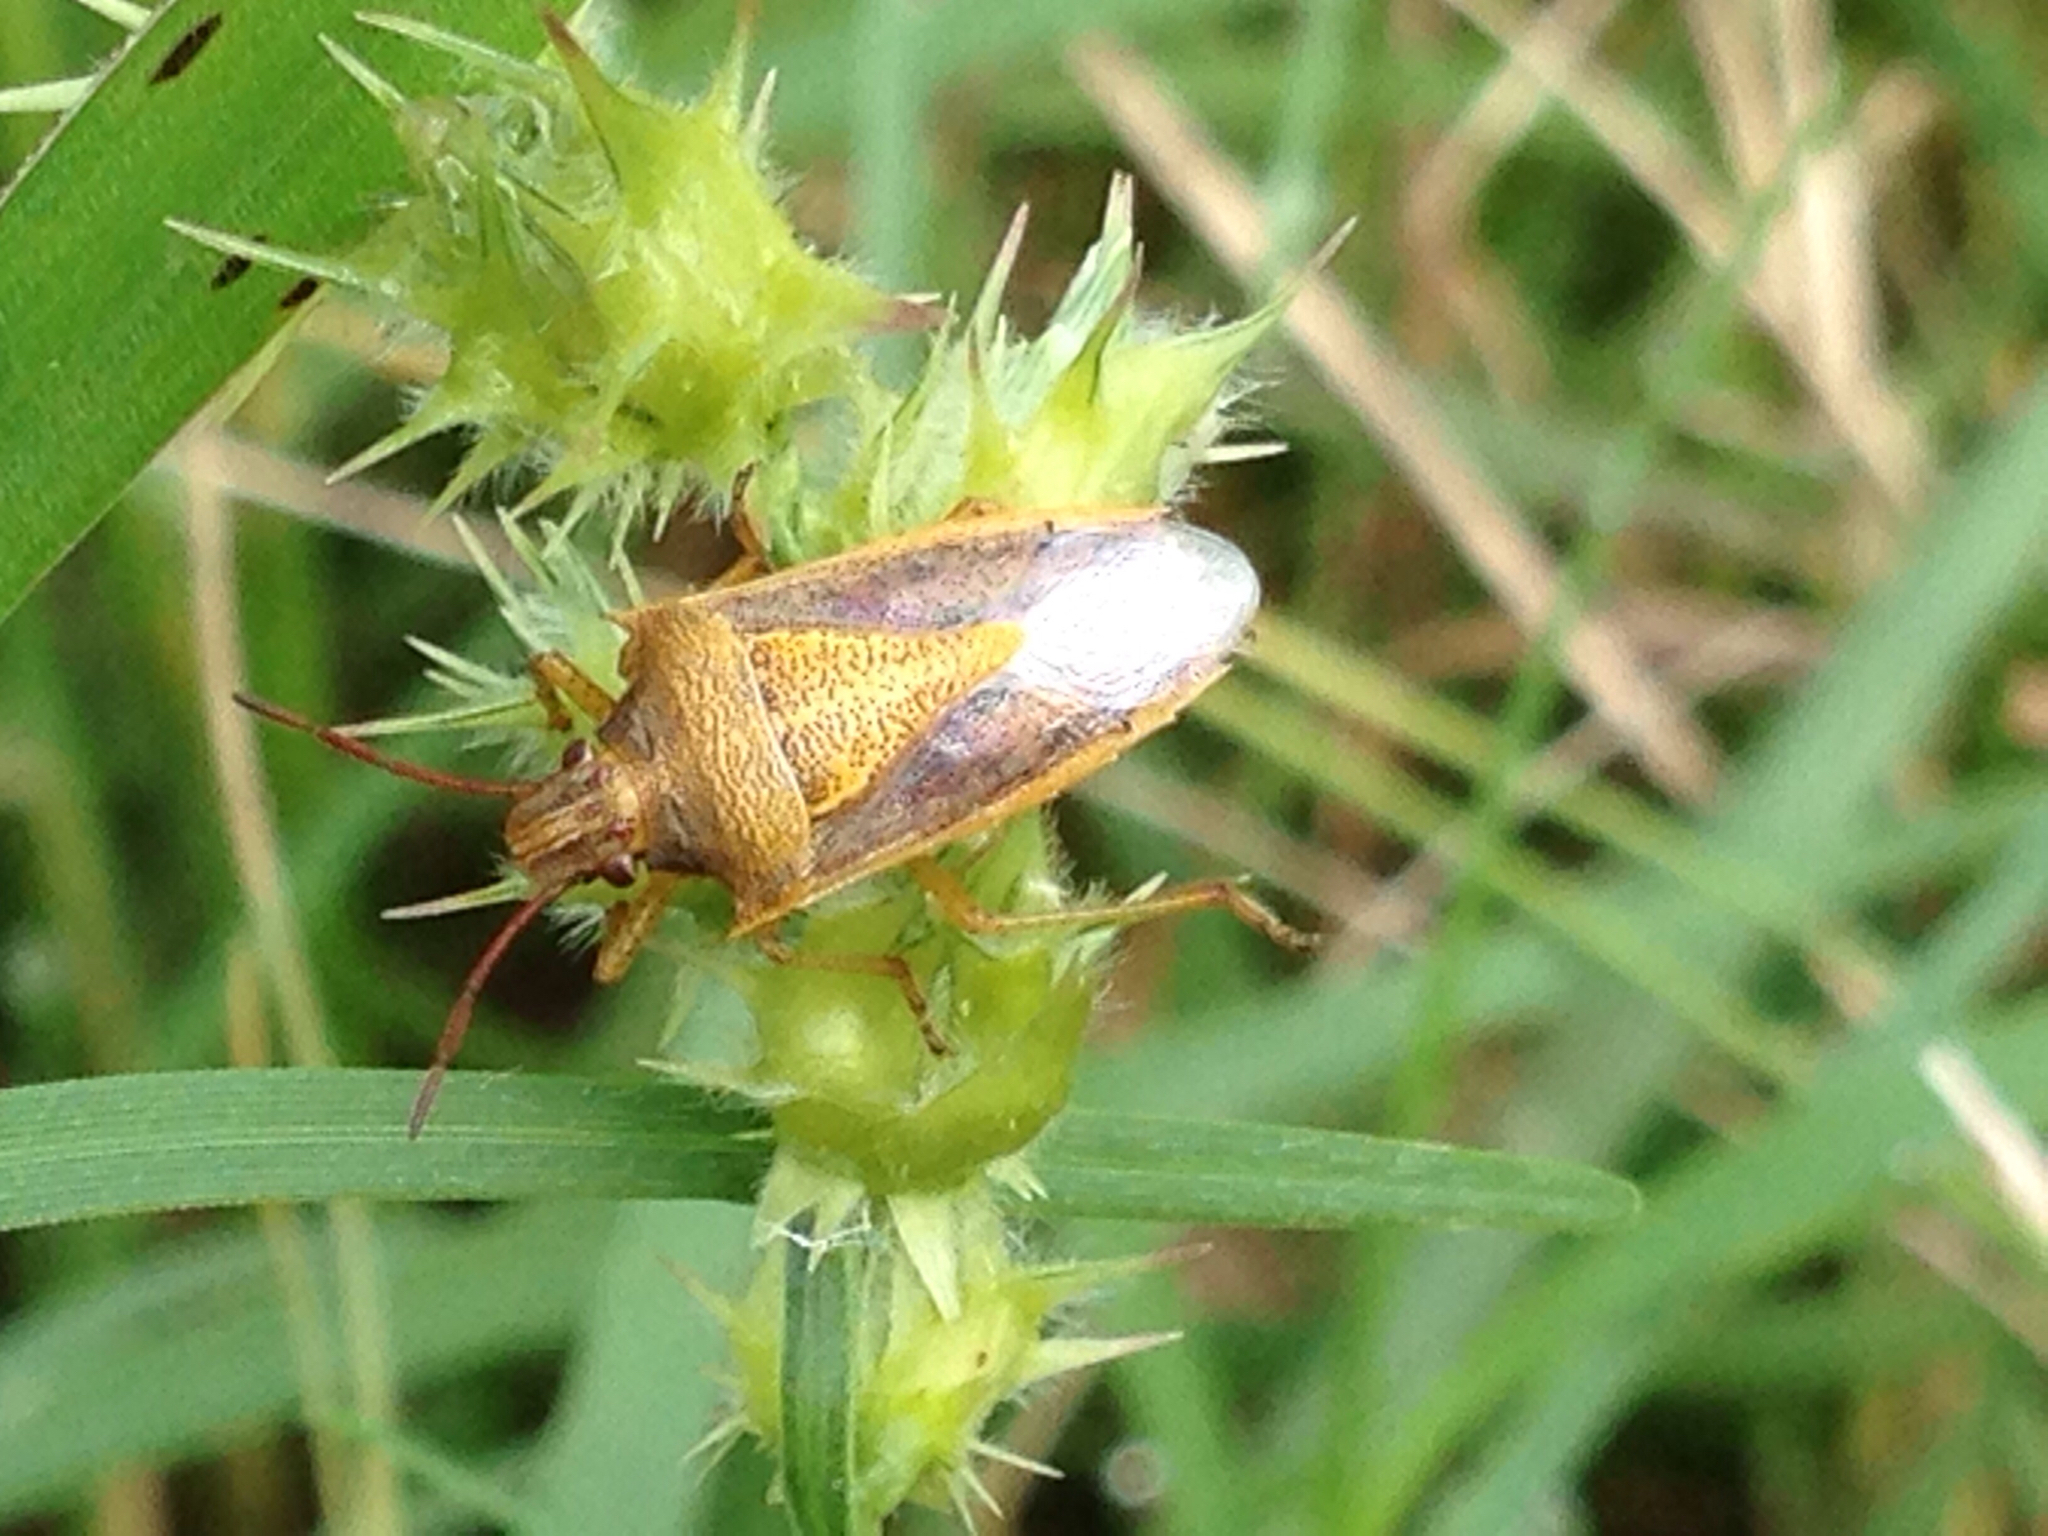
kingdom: Animalia
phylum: Arthropoda
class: Insecta
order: Hemiptera
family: Pentatomidae
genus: Oebalus
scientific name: Oebalus pugnax
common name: Rice stink bug
